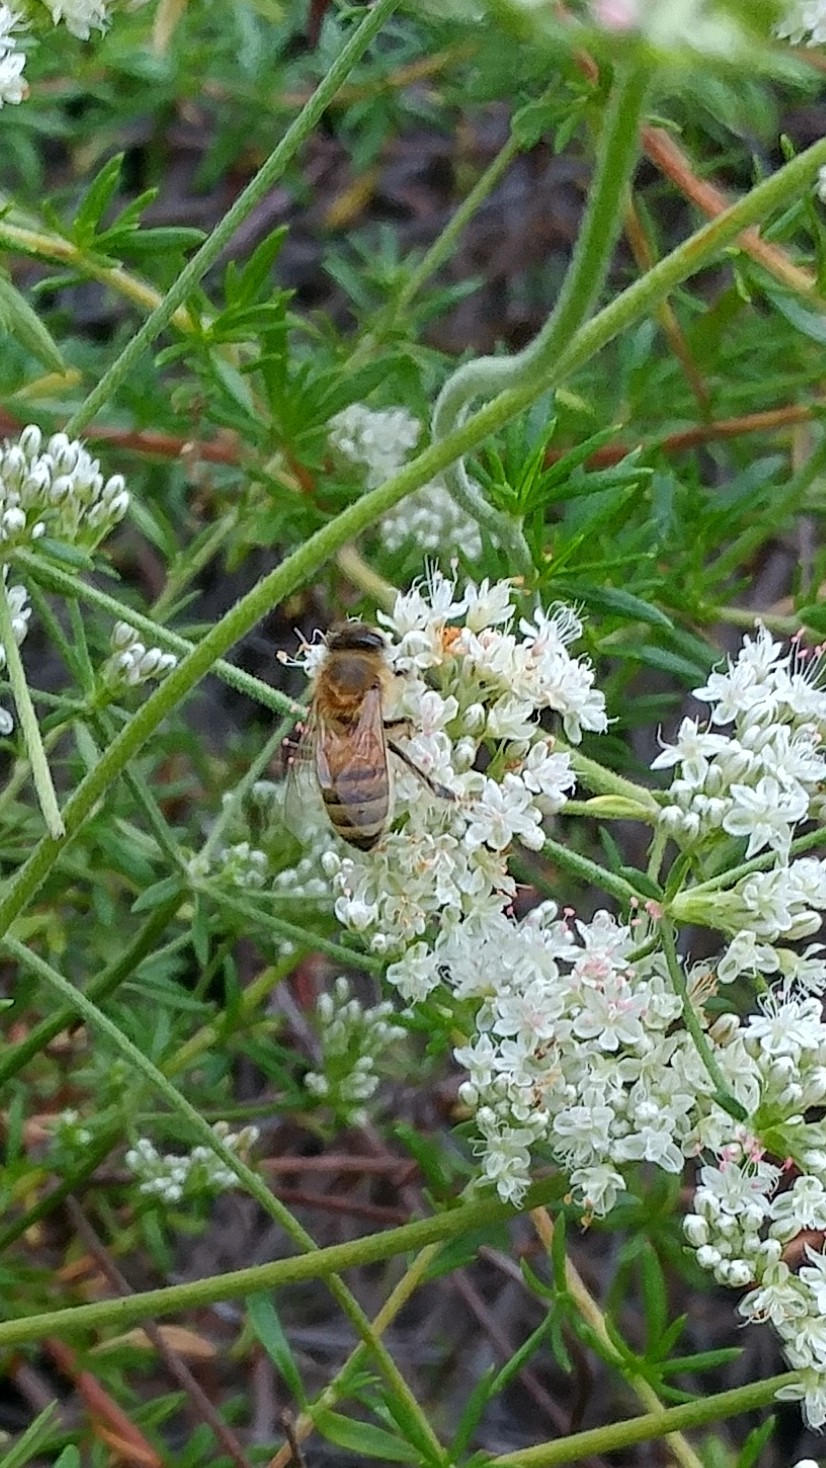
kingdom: Animalia
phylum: Arthropoda
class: Insecta
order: Hymenoptera
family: Apidae
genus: Apis
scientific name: Apis mellifera
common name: Honey bee
